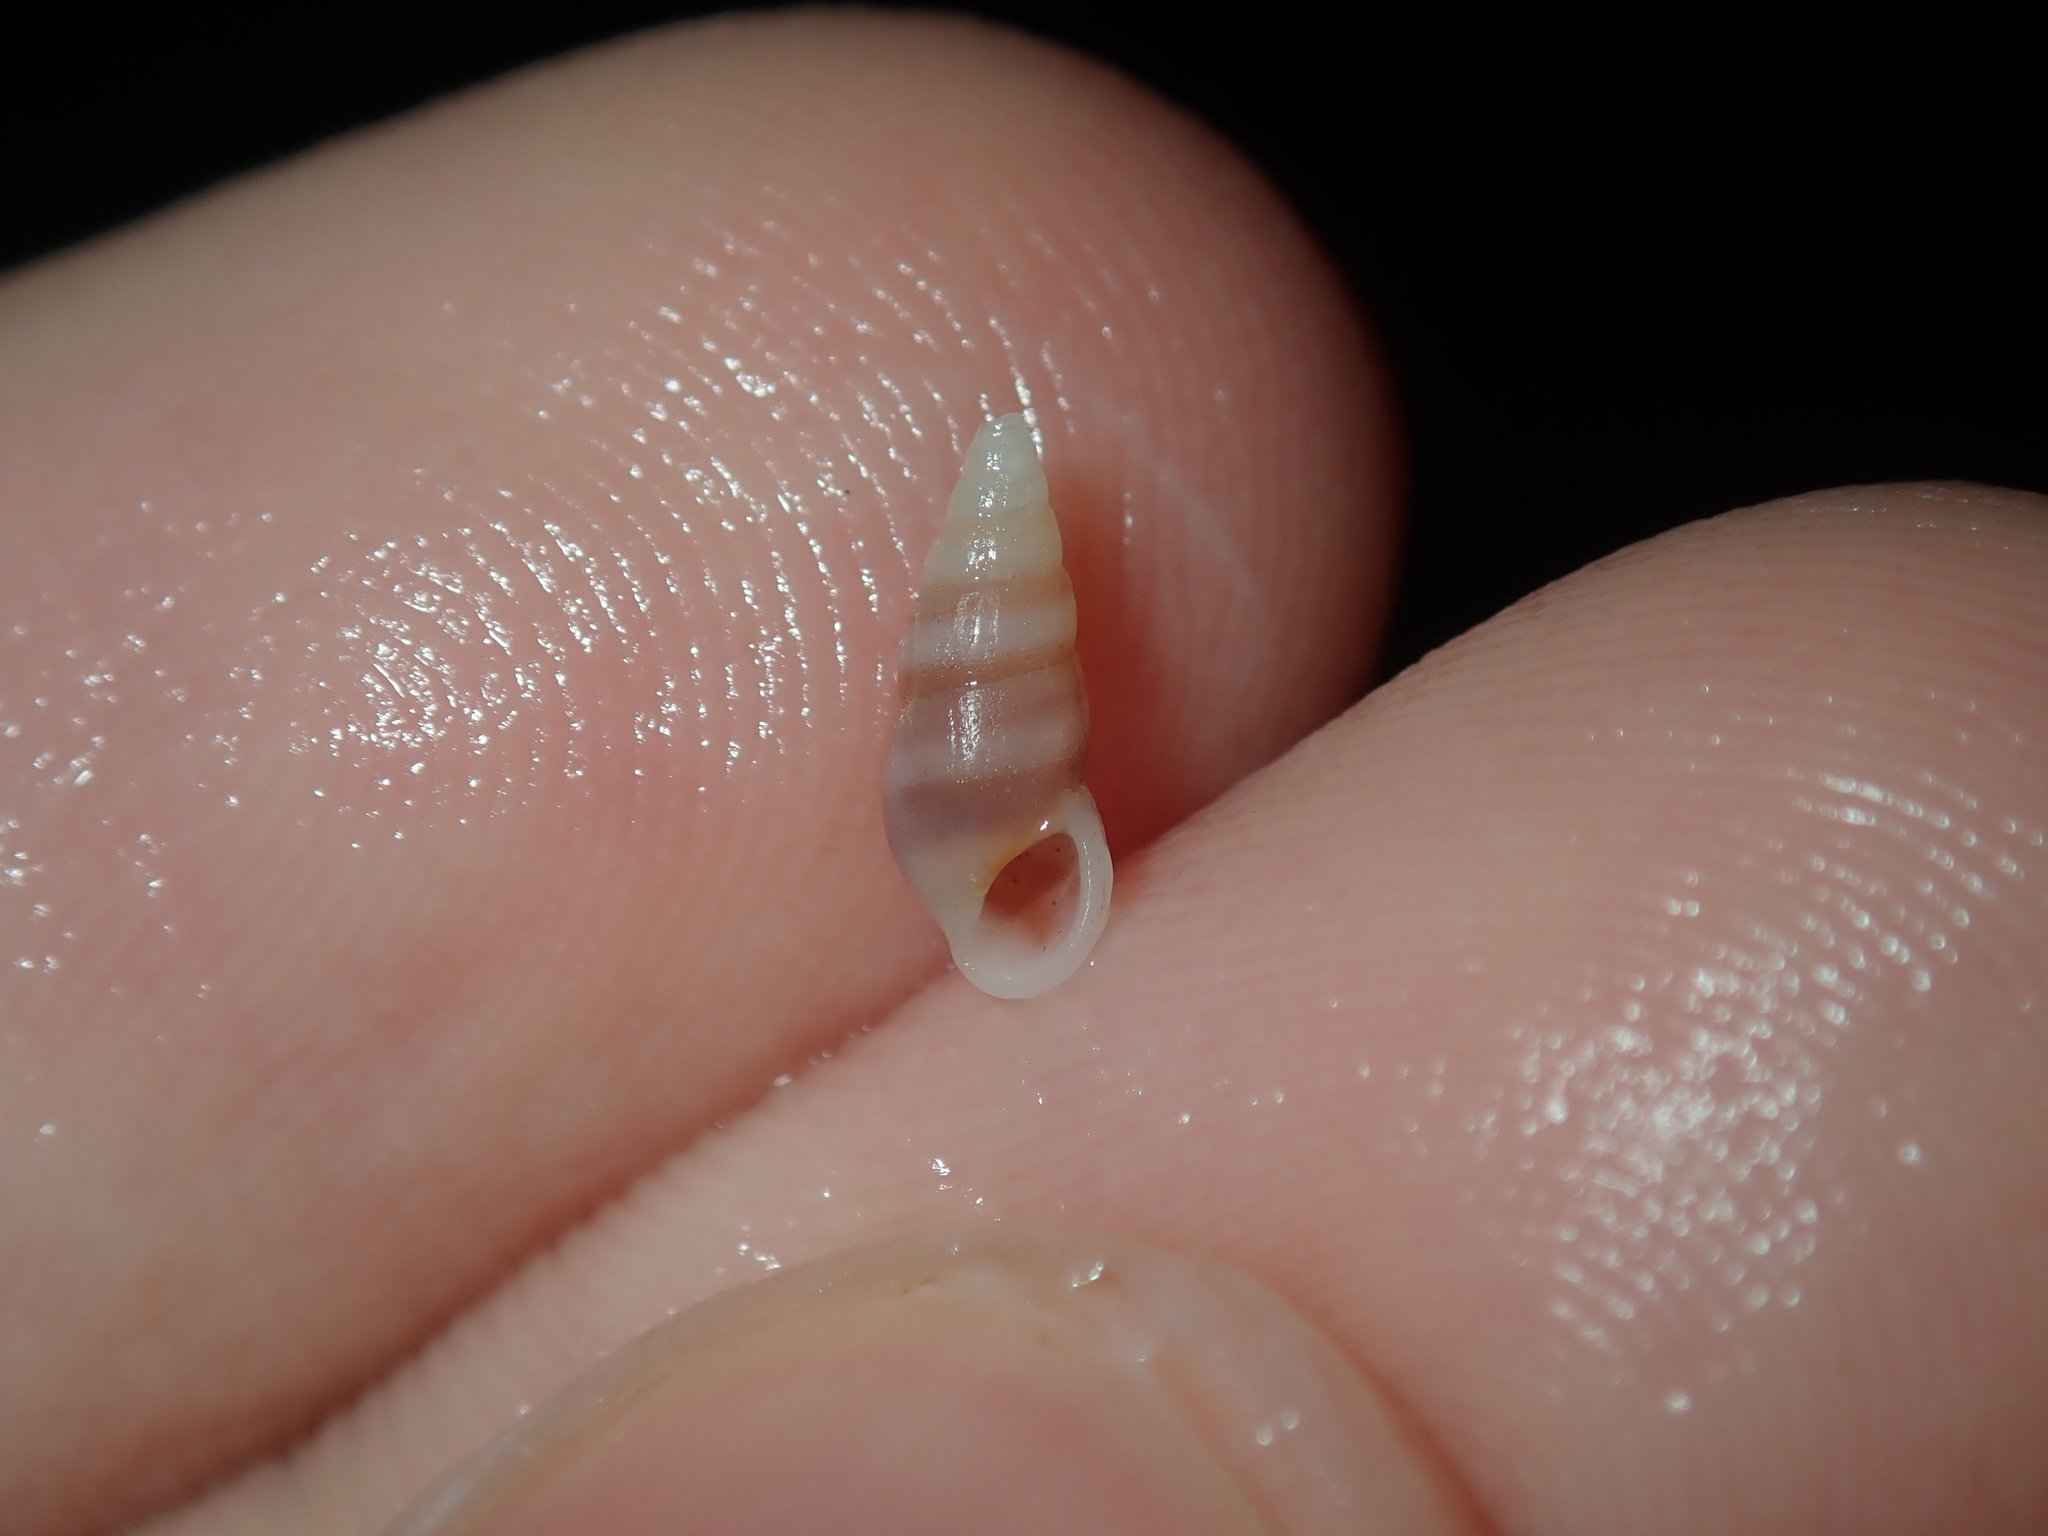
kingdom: Animalia
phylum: Mollusca
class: Gastropoda
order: Littorinimorpha
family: Rissoinidae
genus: Rissoina
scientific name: Rissoina fasciata
